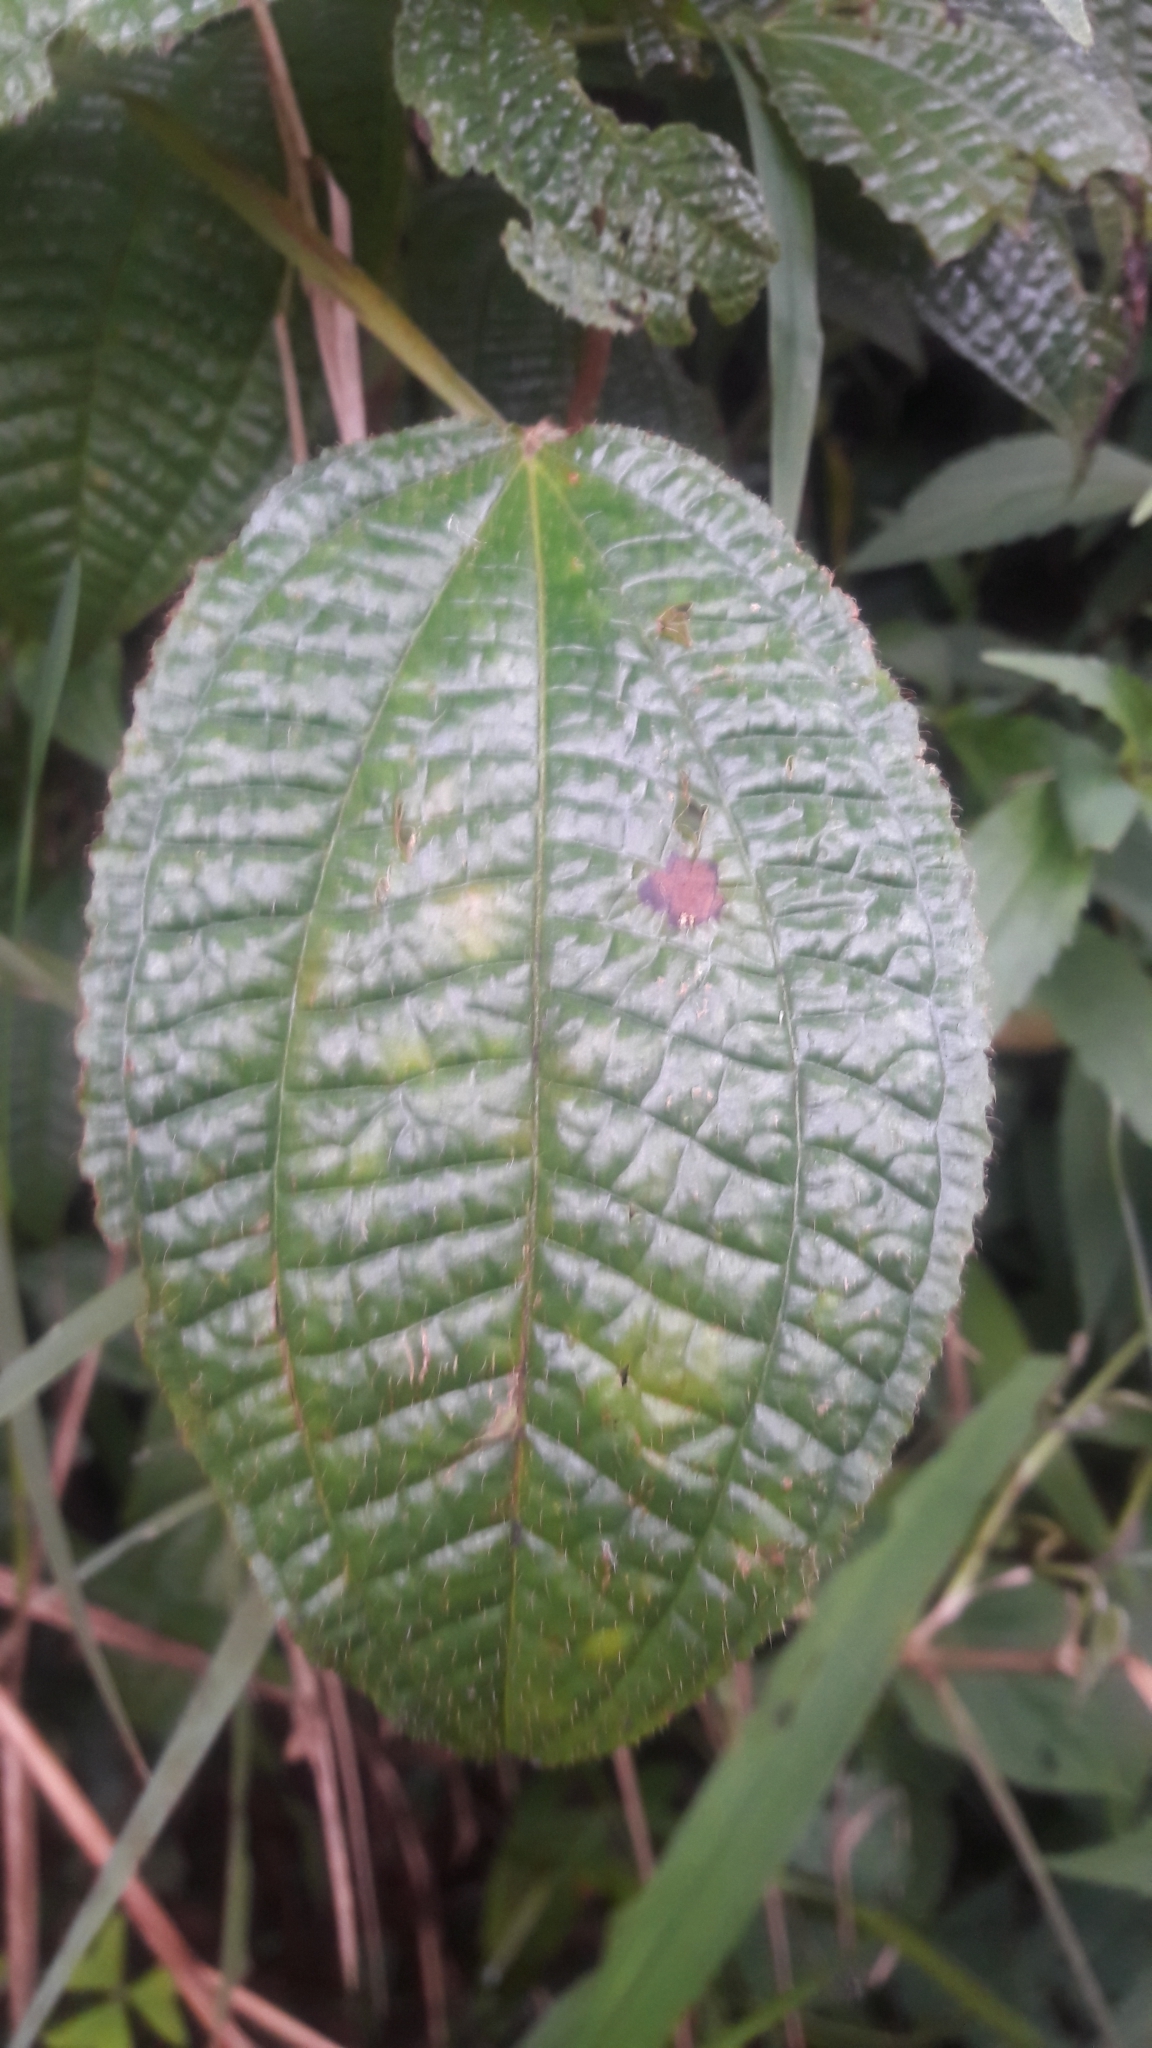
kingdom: Plantae
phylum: Tracheophyta
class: Magnoliopsida
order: Myrtales
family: Melastomataceae
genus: Miconia
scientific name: Miconia crenata
